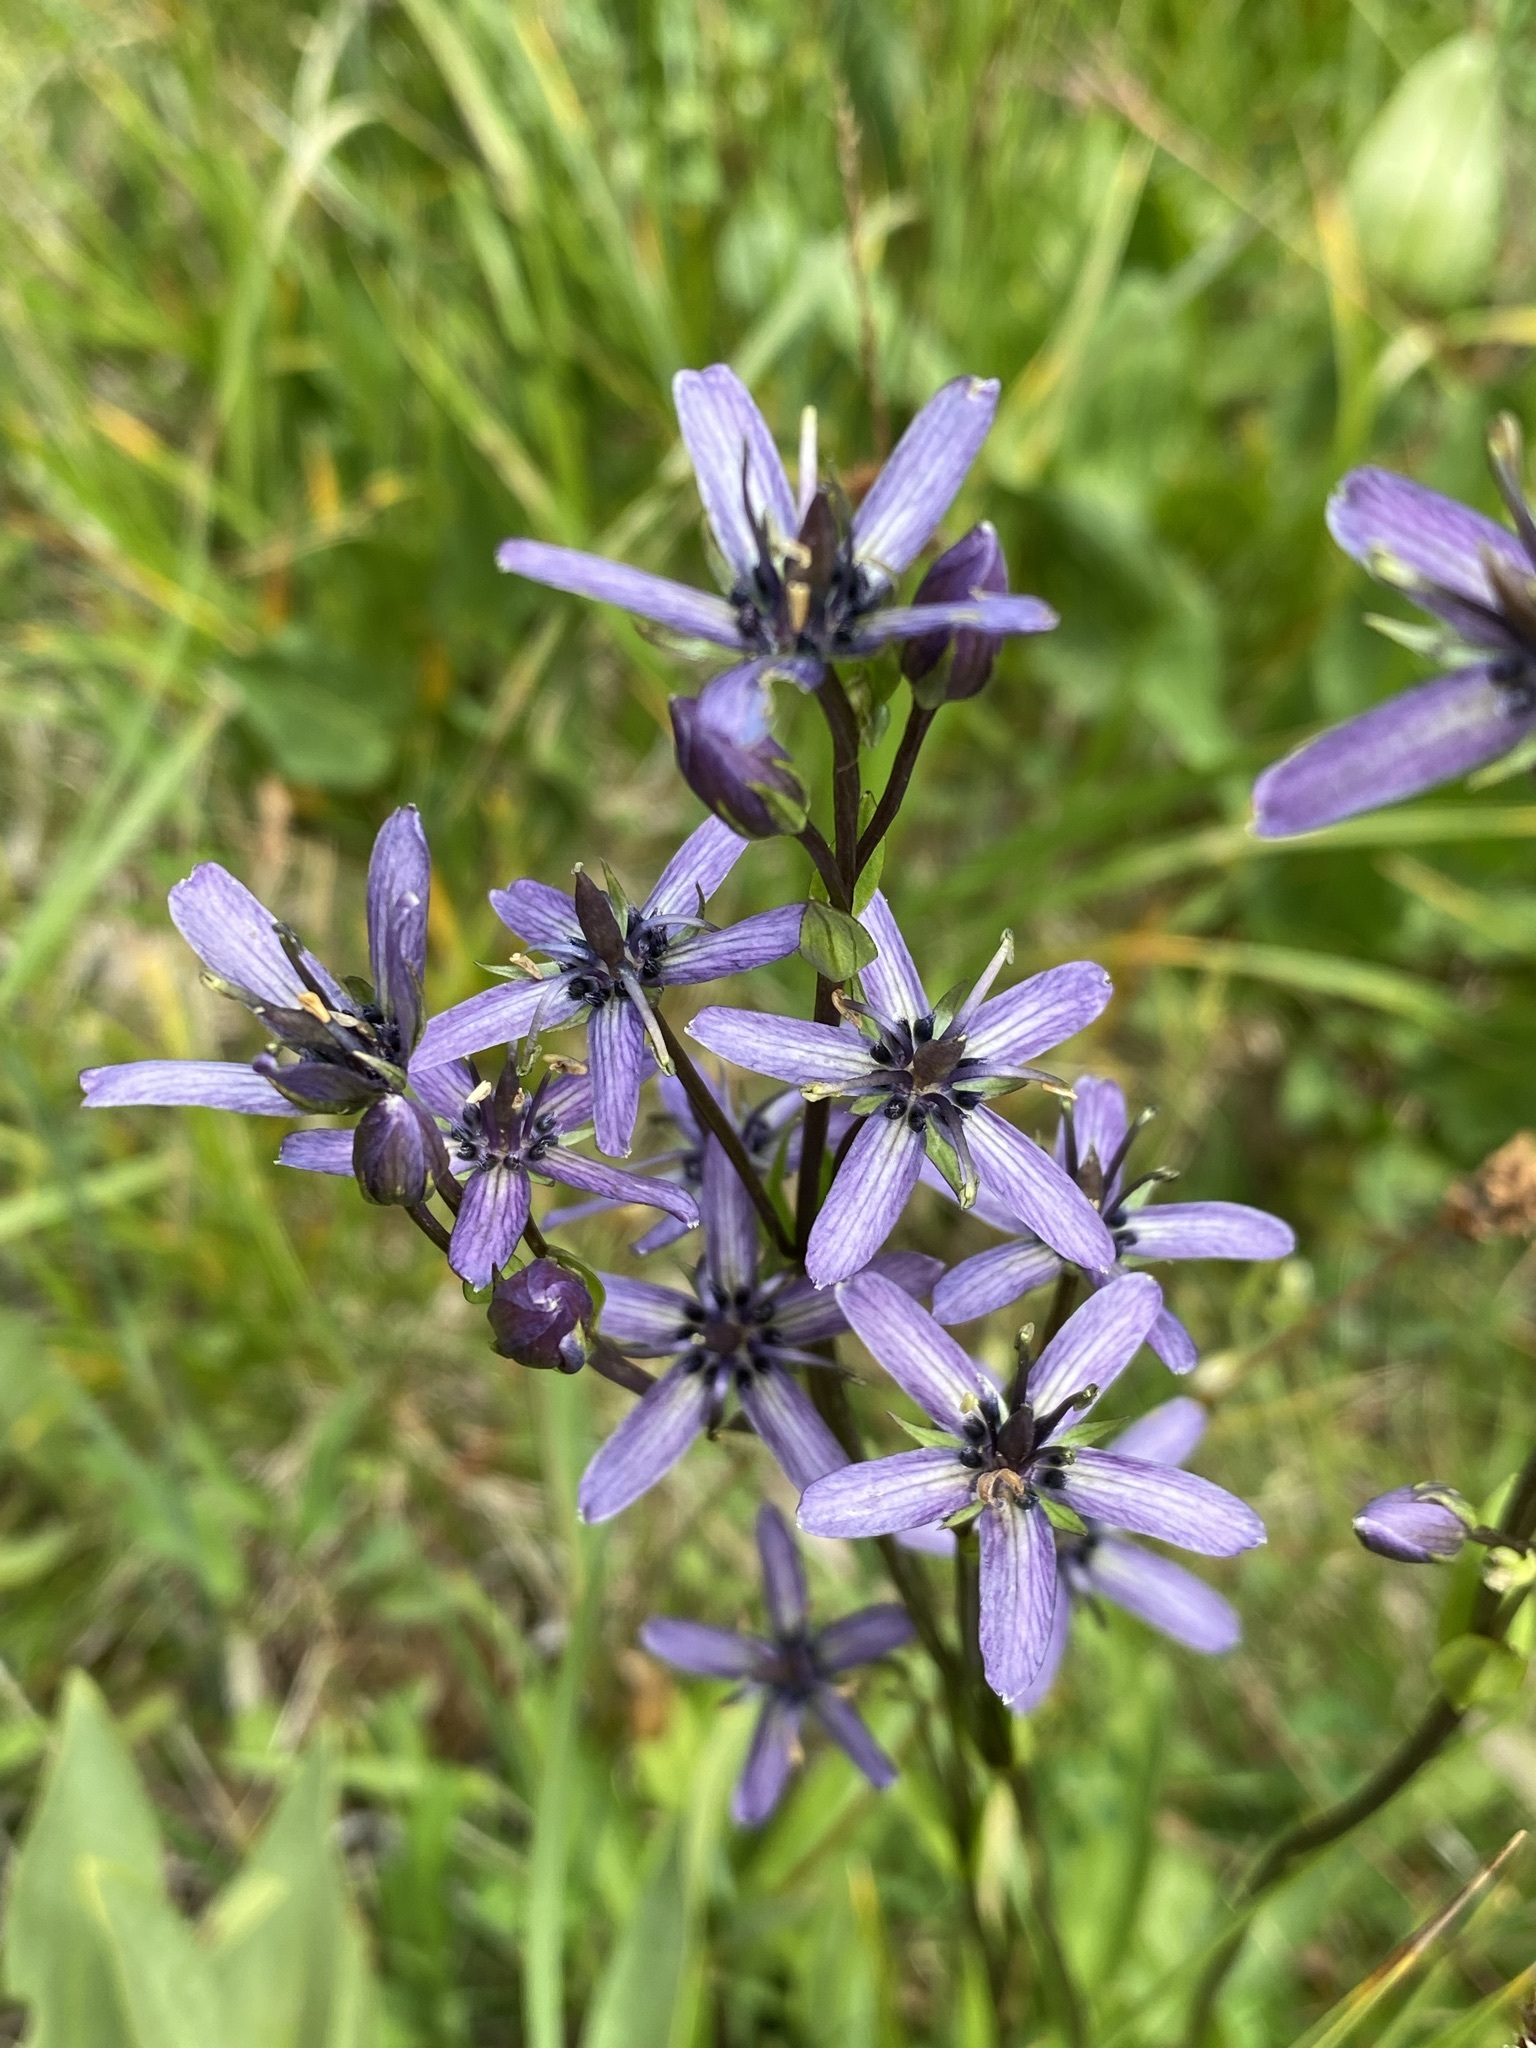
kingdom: Plantae
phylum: Tracheophyta
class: Magnoliopsida
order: Gentianales
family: Gentianaceae
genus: Swertia
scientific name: Swertia perennis
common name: Alpine bog swertia
